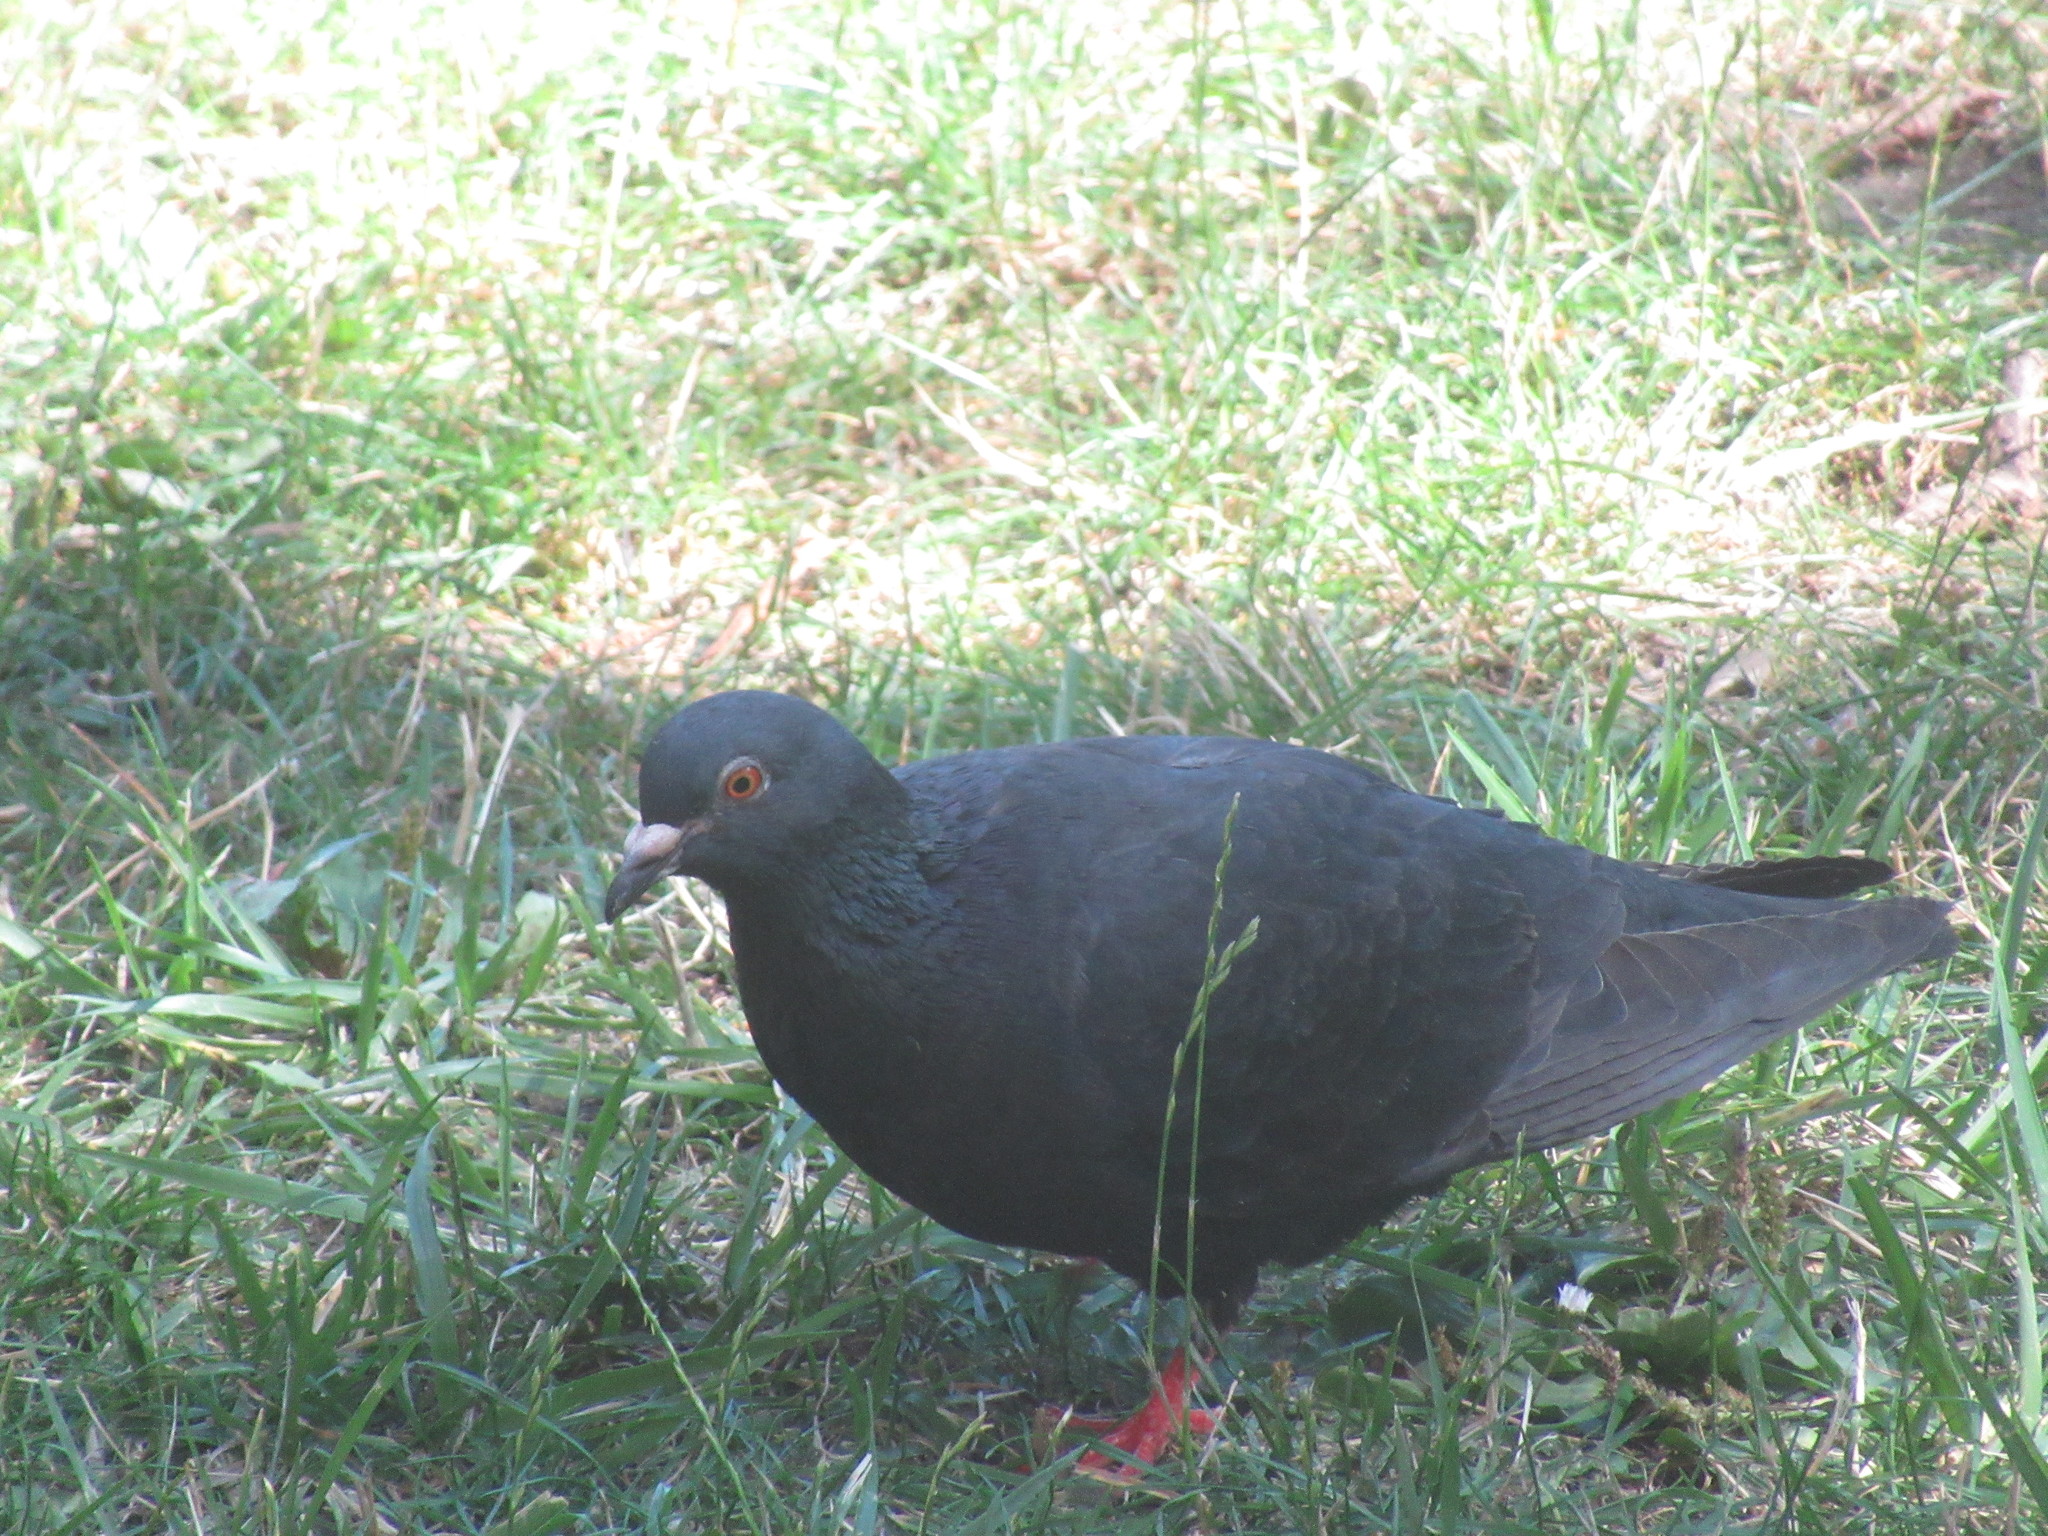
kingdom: Animalia
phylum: Chordata
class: Aves
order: Columbiformes
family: Columbidae
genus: Columba
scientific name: Columba livia
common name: Rock pigeon
